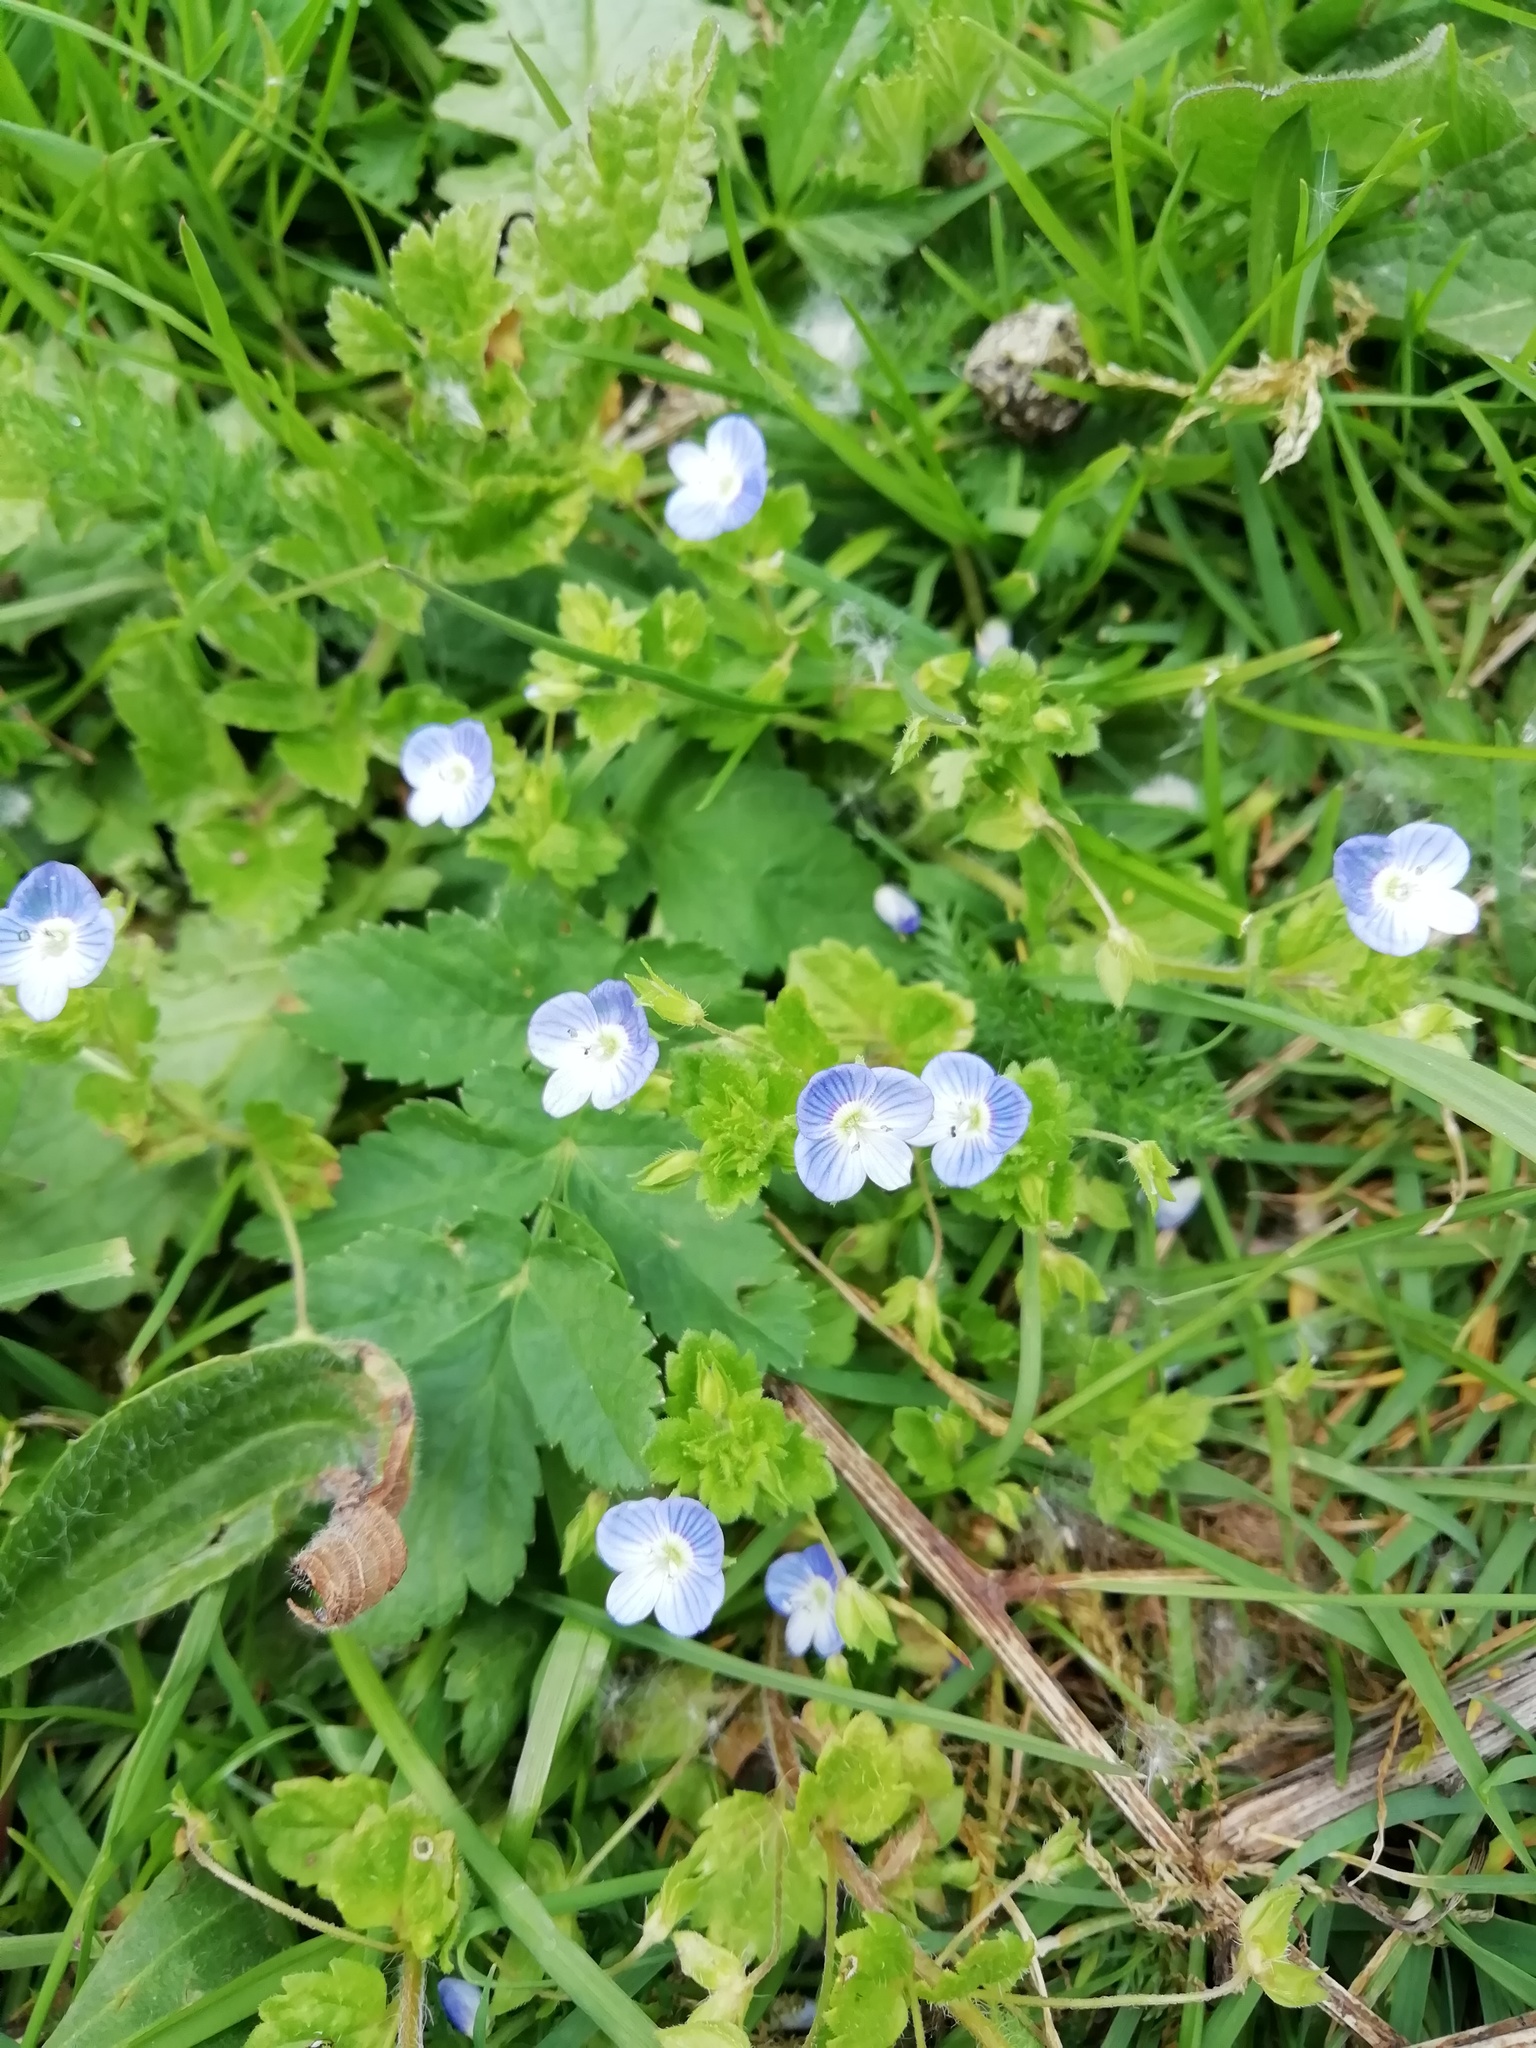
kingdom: Plantae
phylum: Tracheophyta
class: Magnoliopsida
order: Lamiales
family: Plantaginaceae
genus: Veronica
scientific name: Veronica persica
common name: Common field-speedwell
